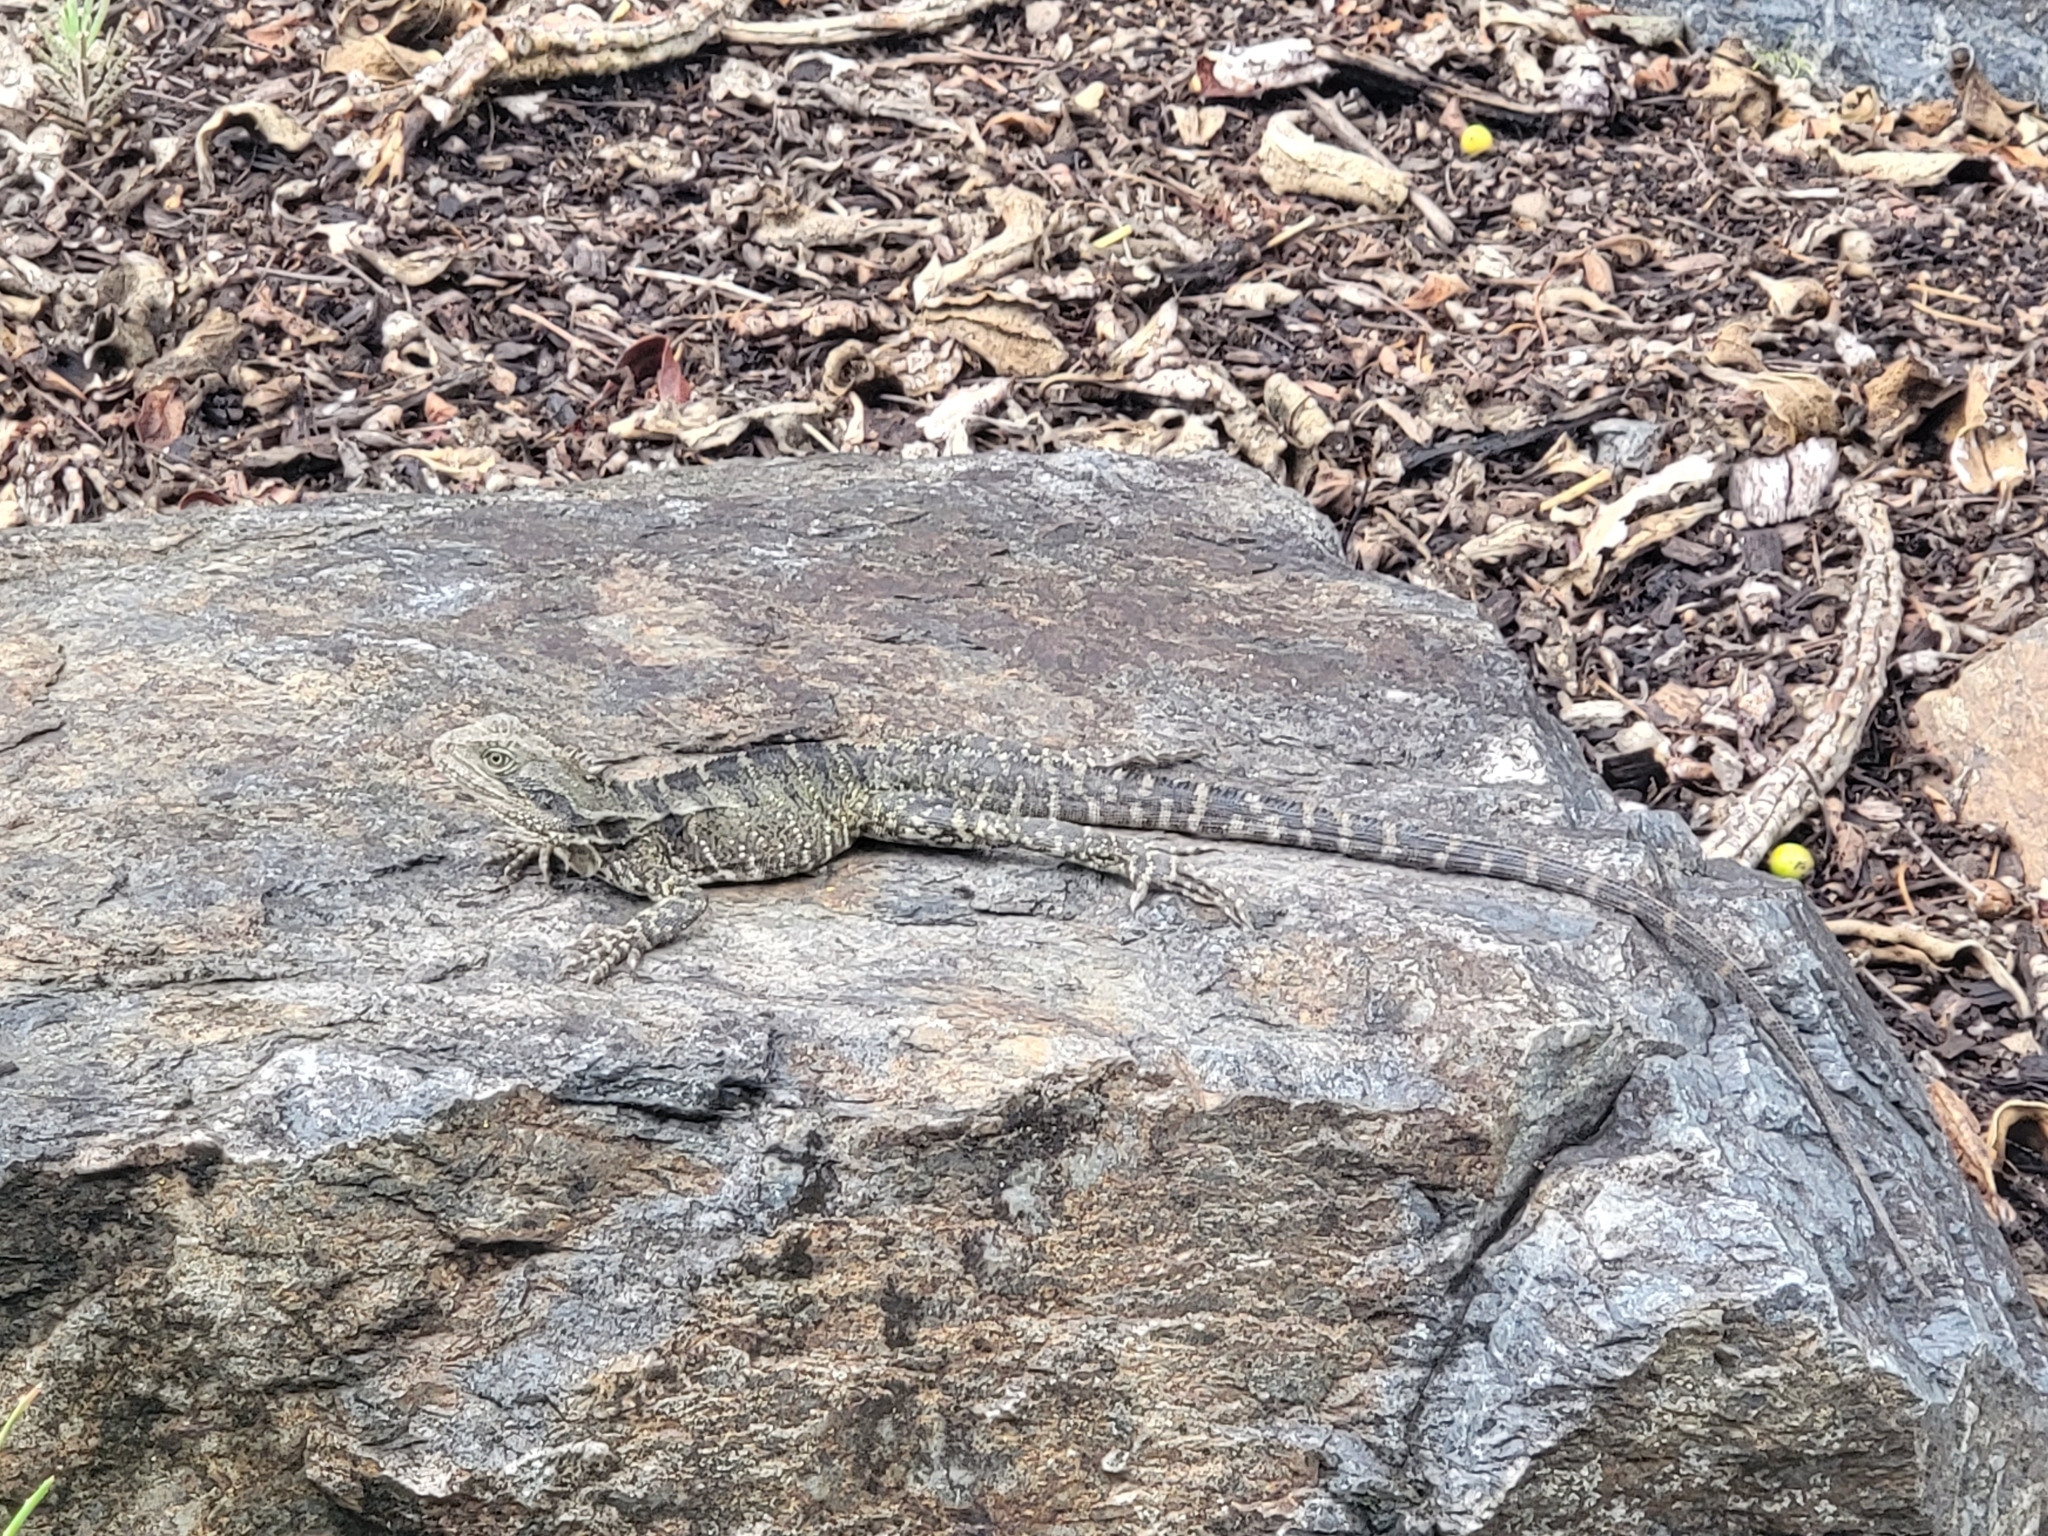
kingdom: Animalia
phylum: Chordata
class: Squamata
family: Agamidae
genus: Intellagama
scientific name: Intellagama lesueurii
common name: Eastern water dragon
